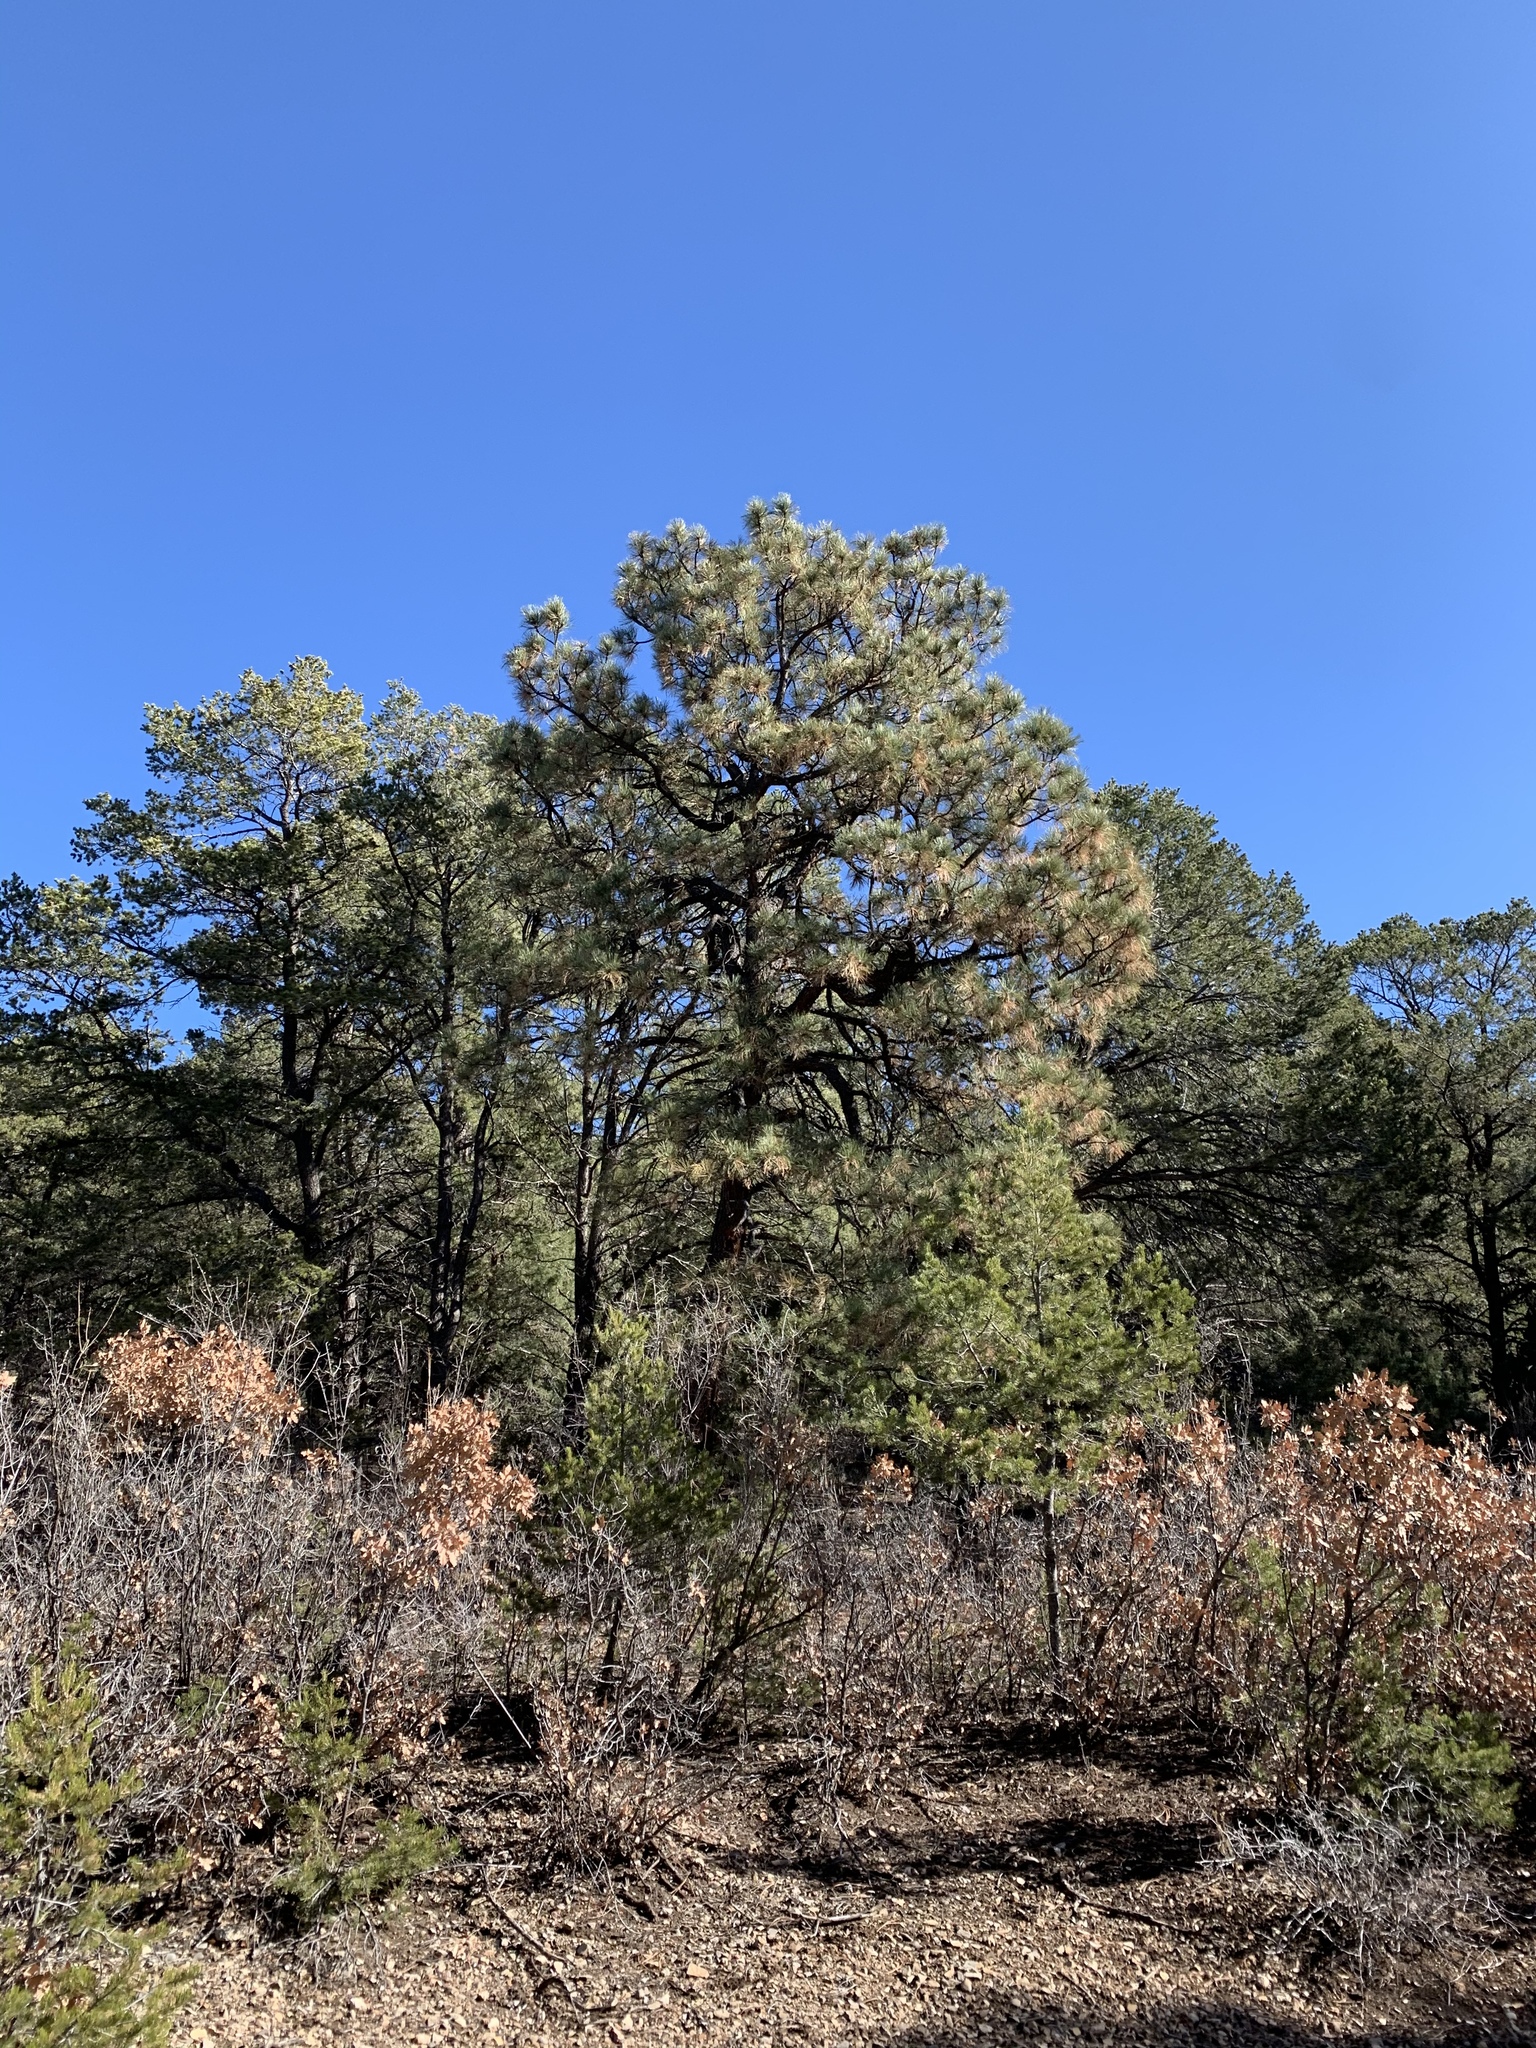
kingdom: Plantae
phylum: Tracheophyta
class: Pinopsida
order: Pinales
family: Pinaceae
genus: Pinus
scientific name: Pinus ponderosa
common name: Western yellow-pine
